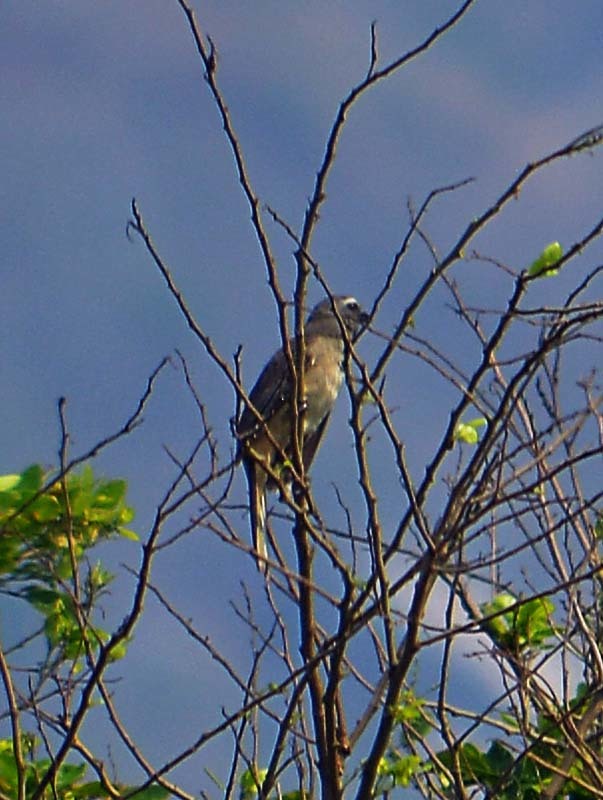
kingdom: Animalia
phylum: Chordata
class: Aves
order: Passeriformes
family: Thraupidae
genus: Saltator
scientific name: Saltator grandis
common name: Cinnamon-bellied saltator
